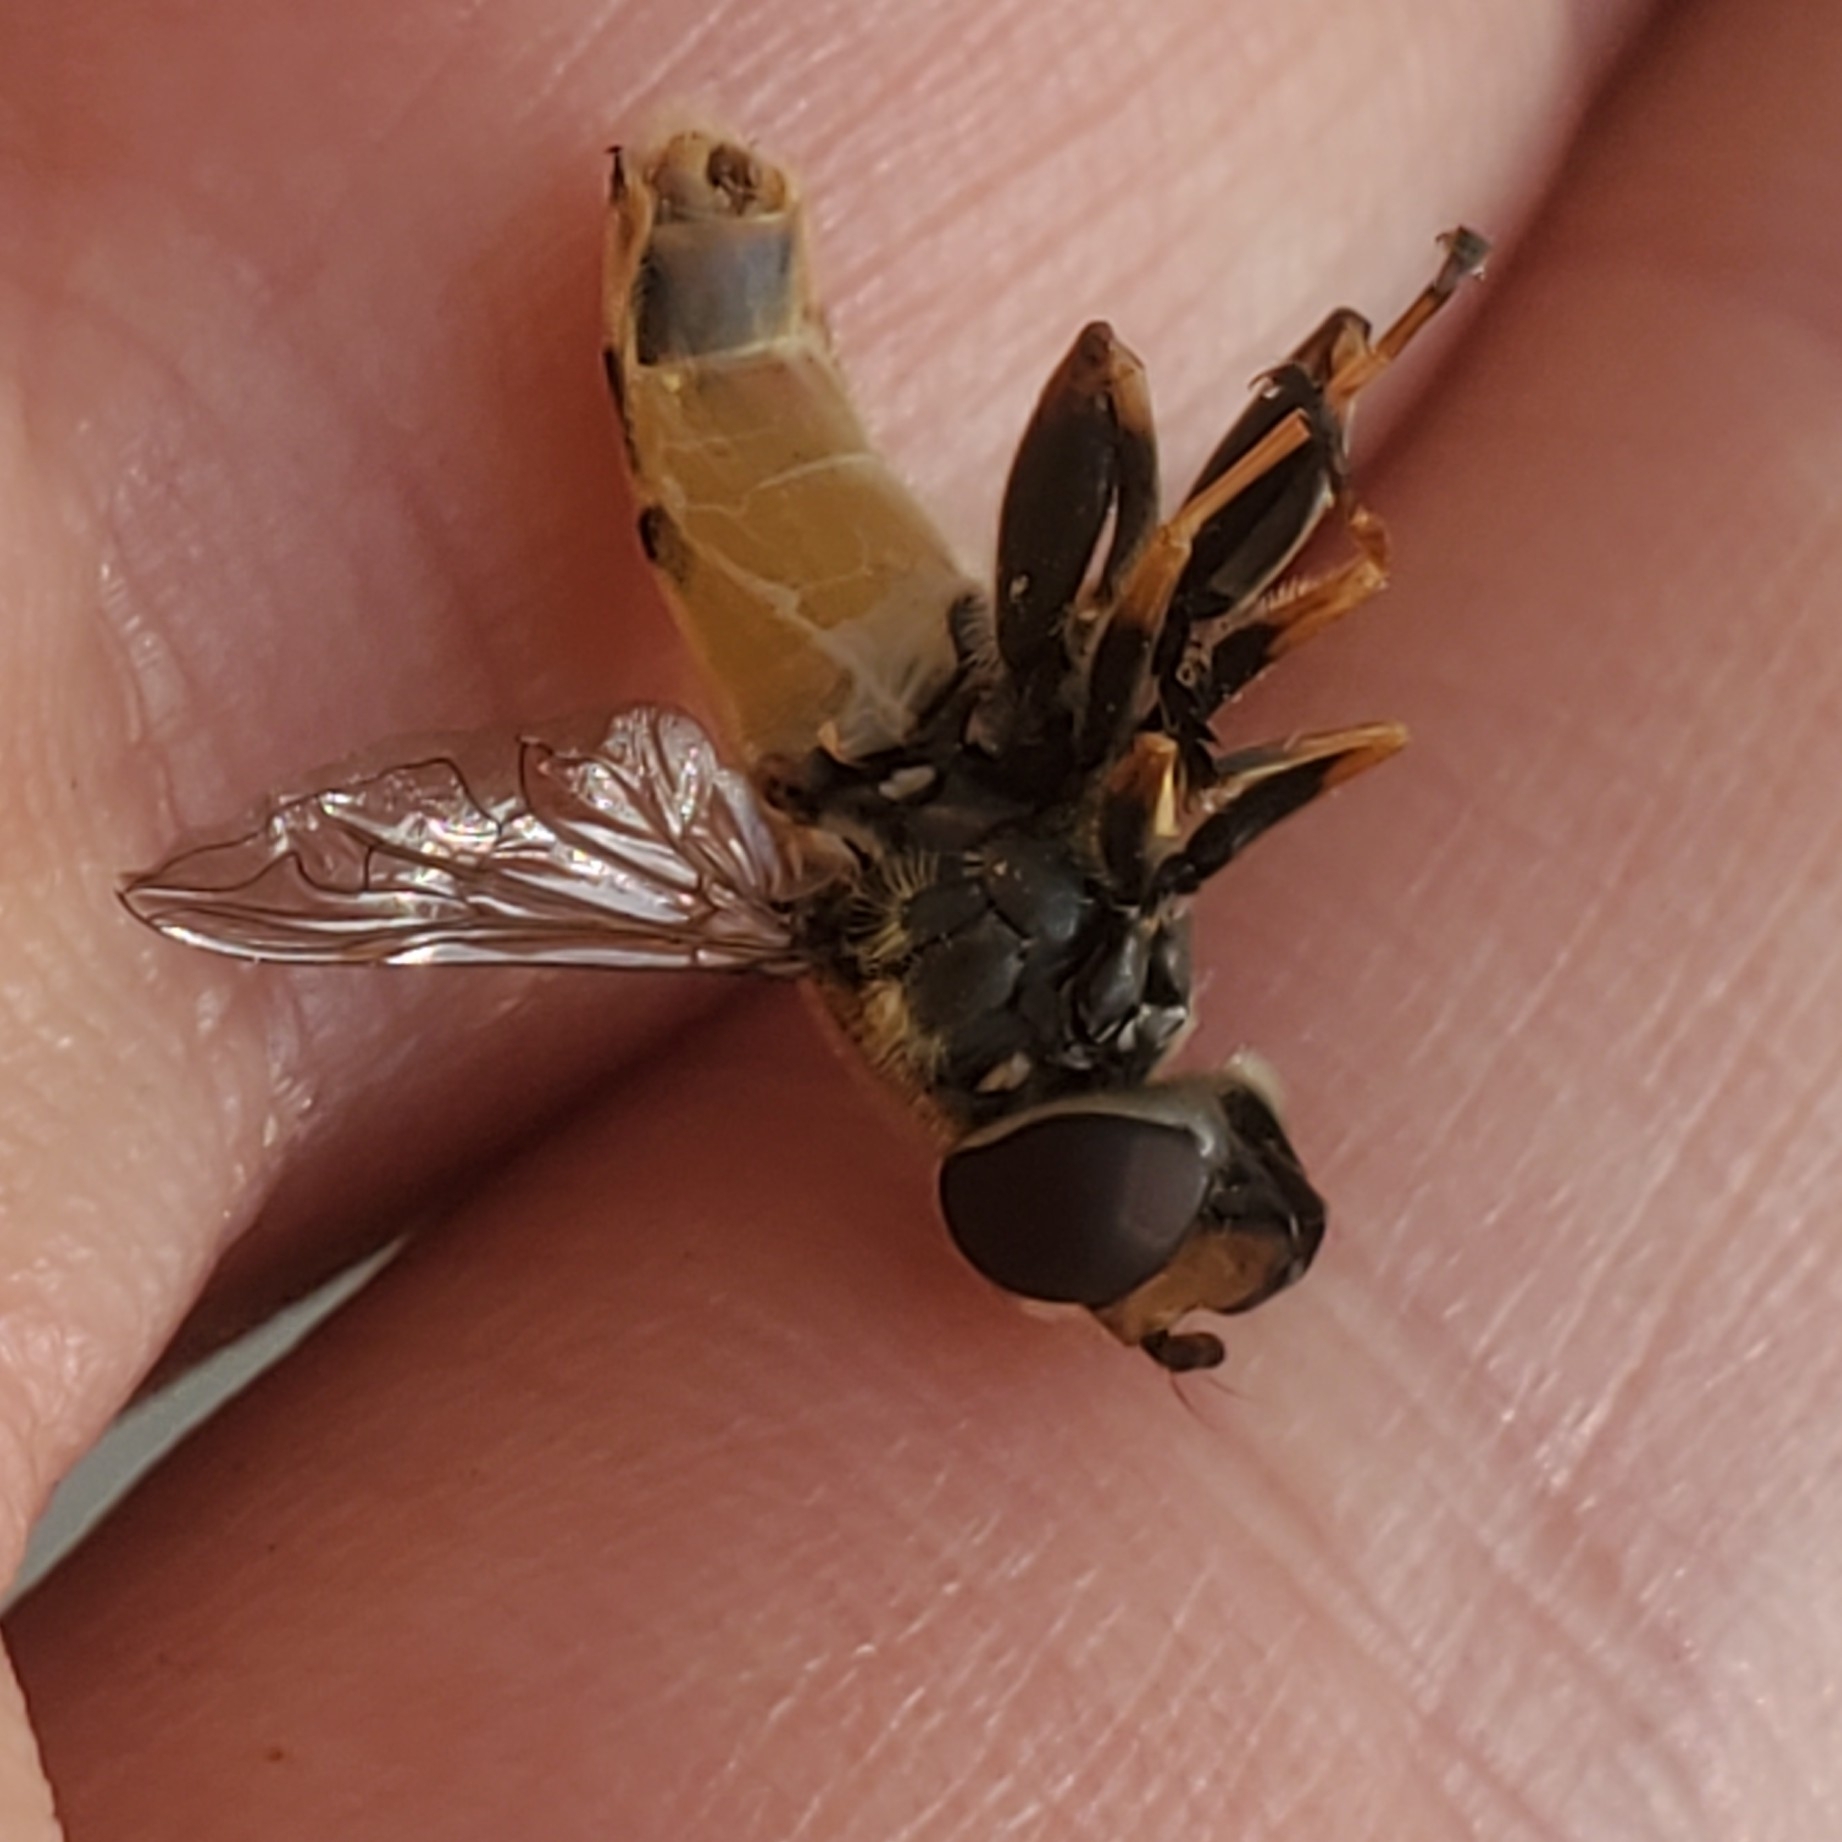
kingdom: Animalia
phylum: Arthropoda
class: Insecta
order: Diptera
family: Syrphidae
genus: Helophilus
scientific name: Helophilus hybridus
